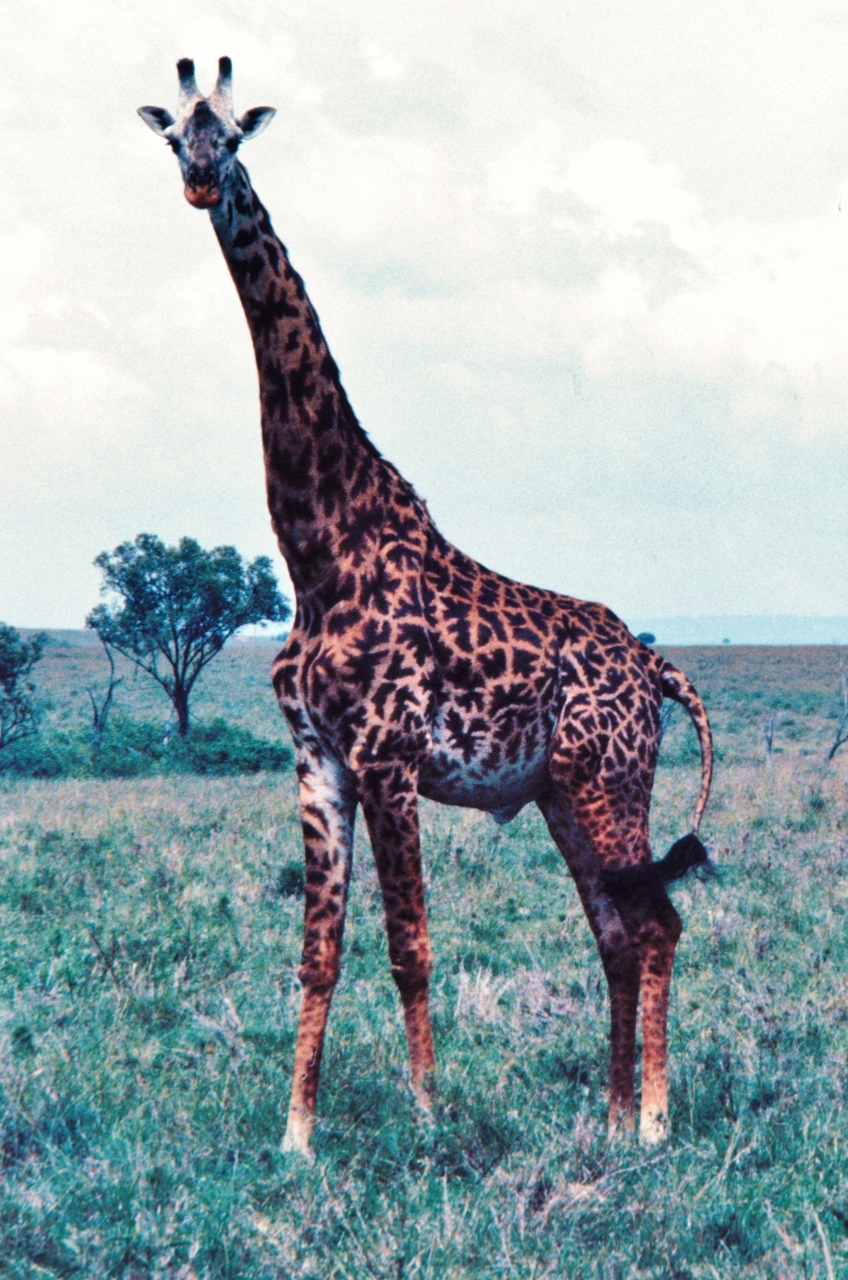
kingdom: Animalia
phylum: Chordata
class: Mammalia
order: Artiodactyla
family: Giraffidae
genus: Giraffa
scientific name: Giraffa tippelskirchi
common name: Masai giraffe
